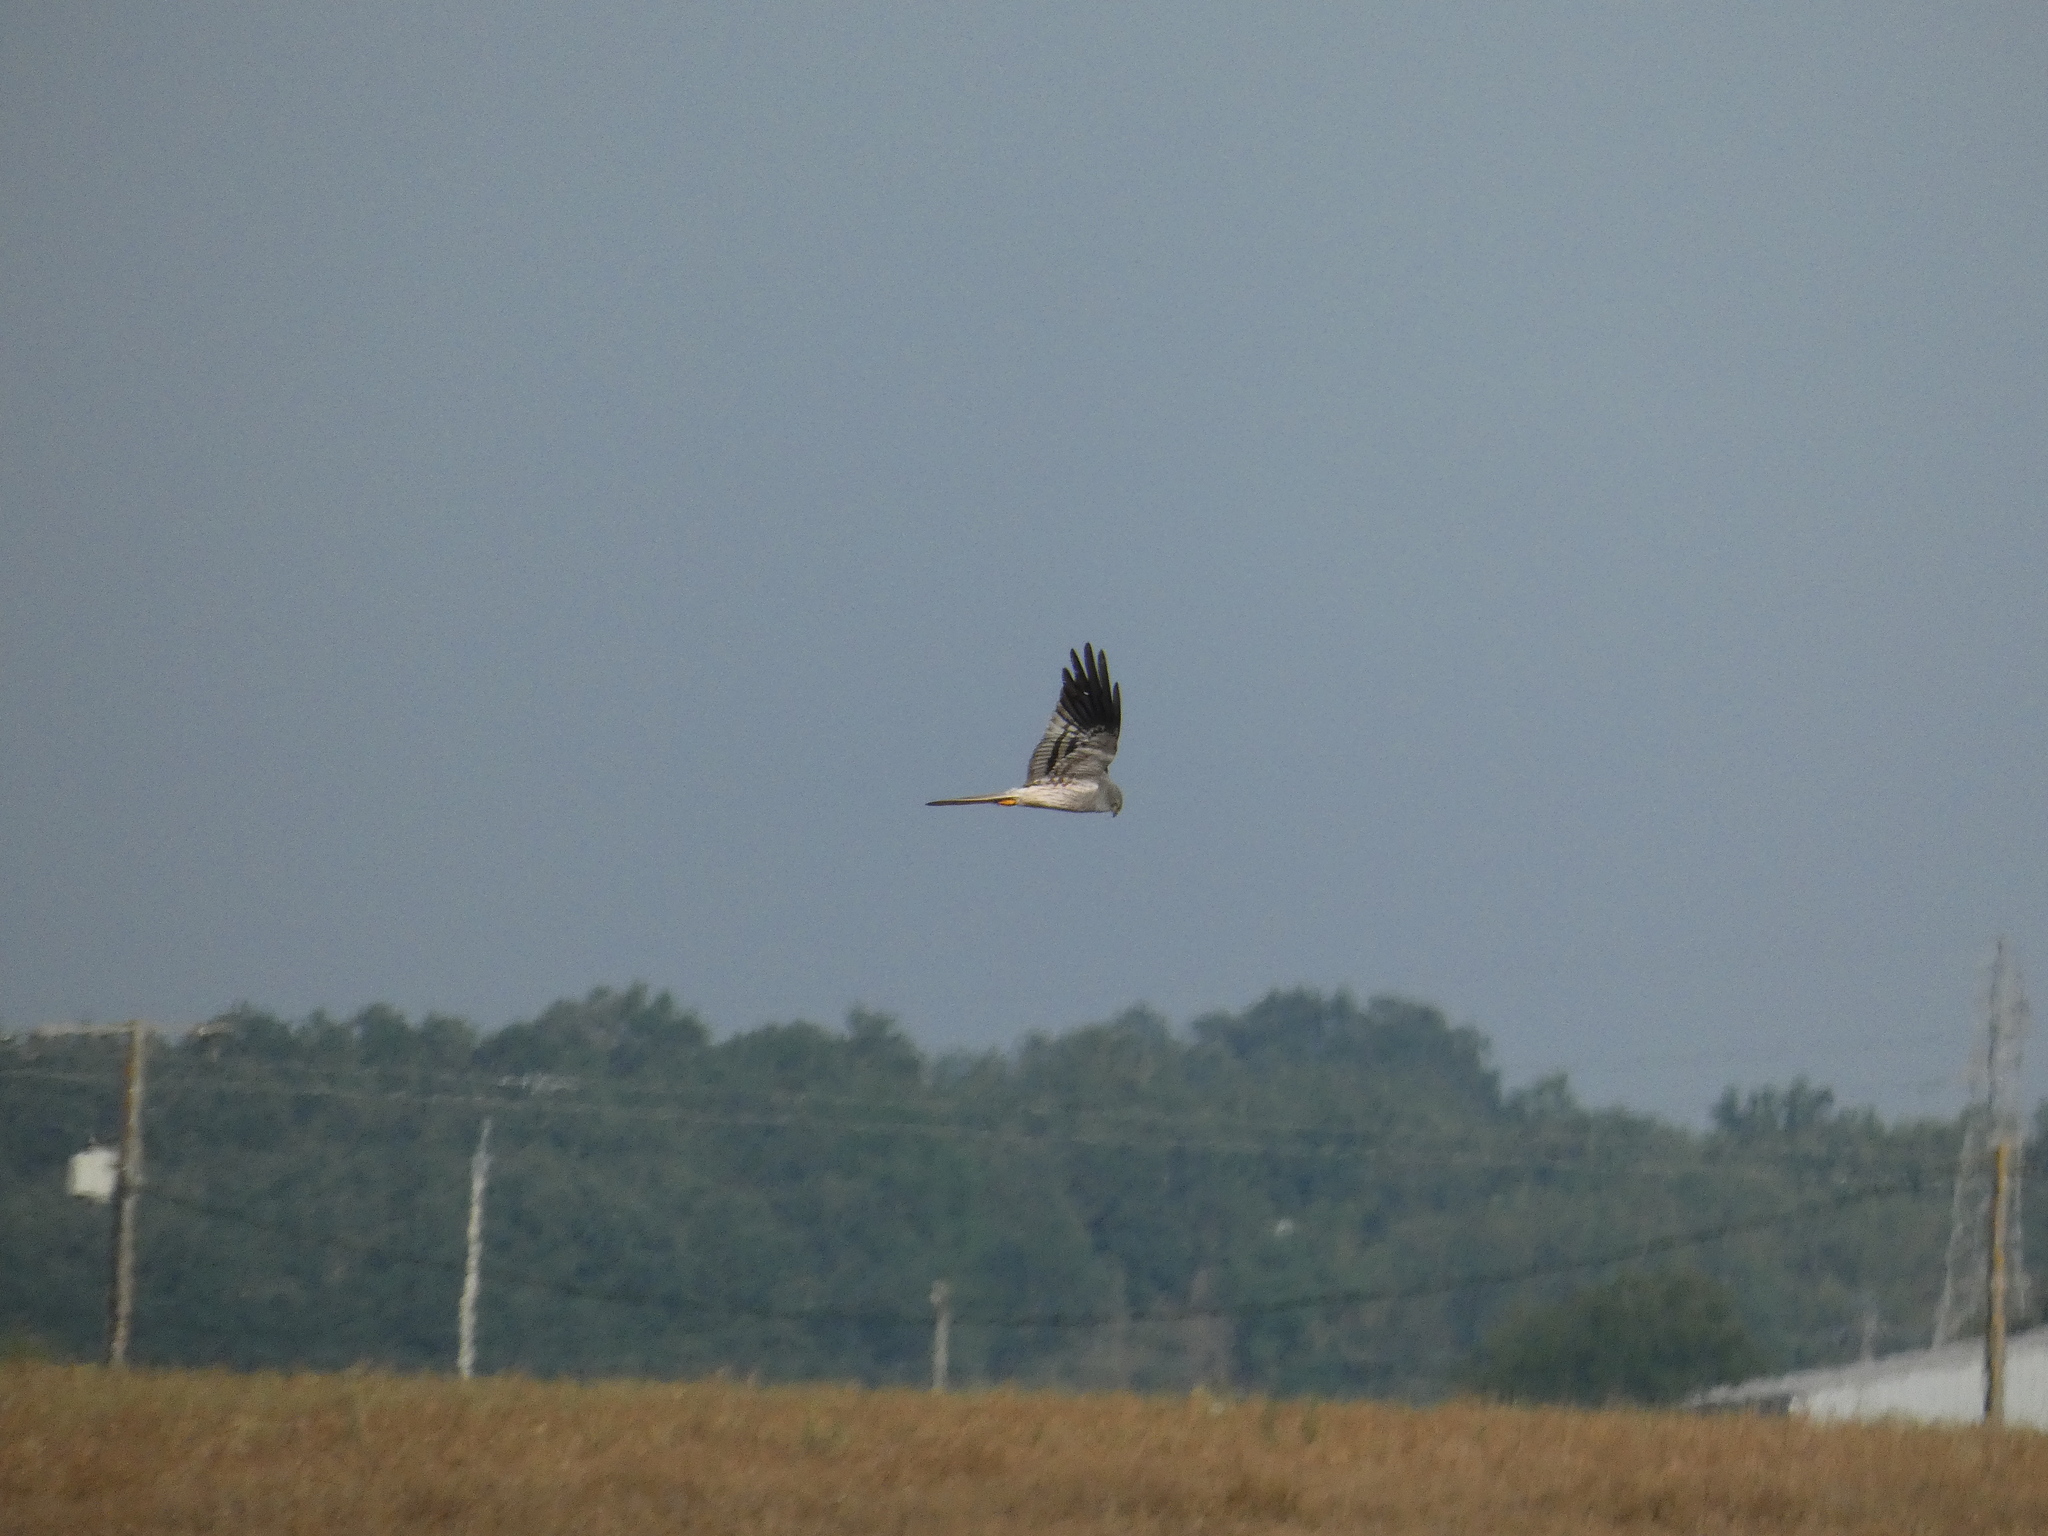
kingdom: Animalia
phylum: Chordata
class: Aves
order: Accipitriformes
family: Accipitridae
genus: Circus
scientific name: Circus pygargus
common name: Montagu's harrier
